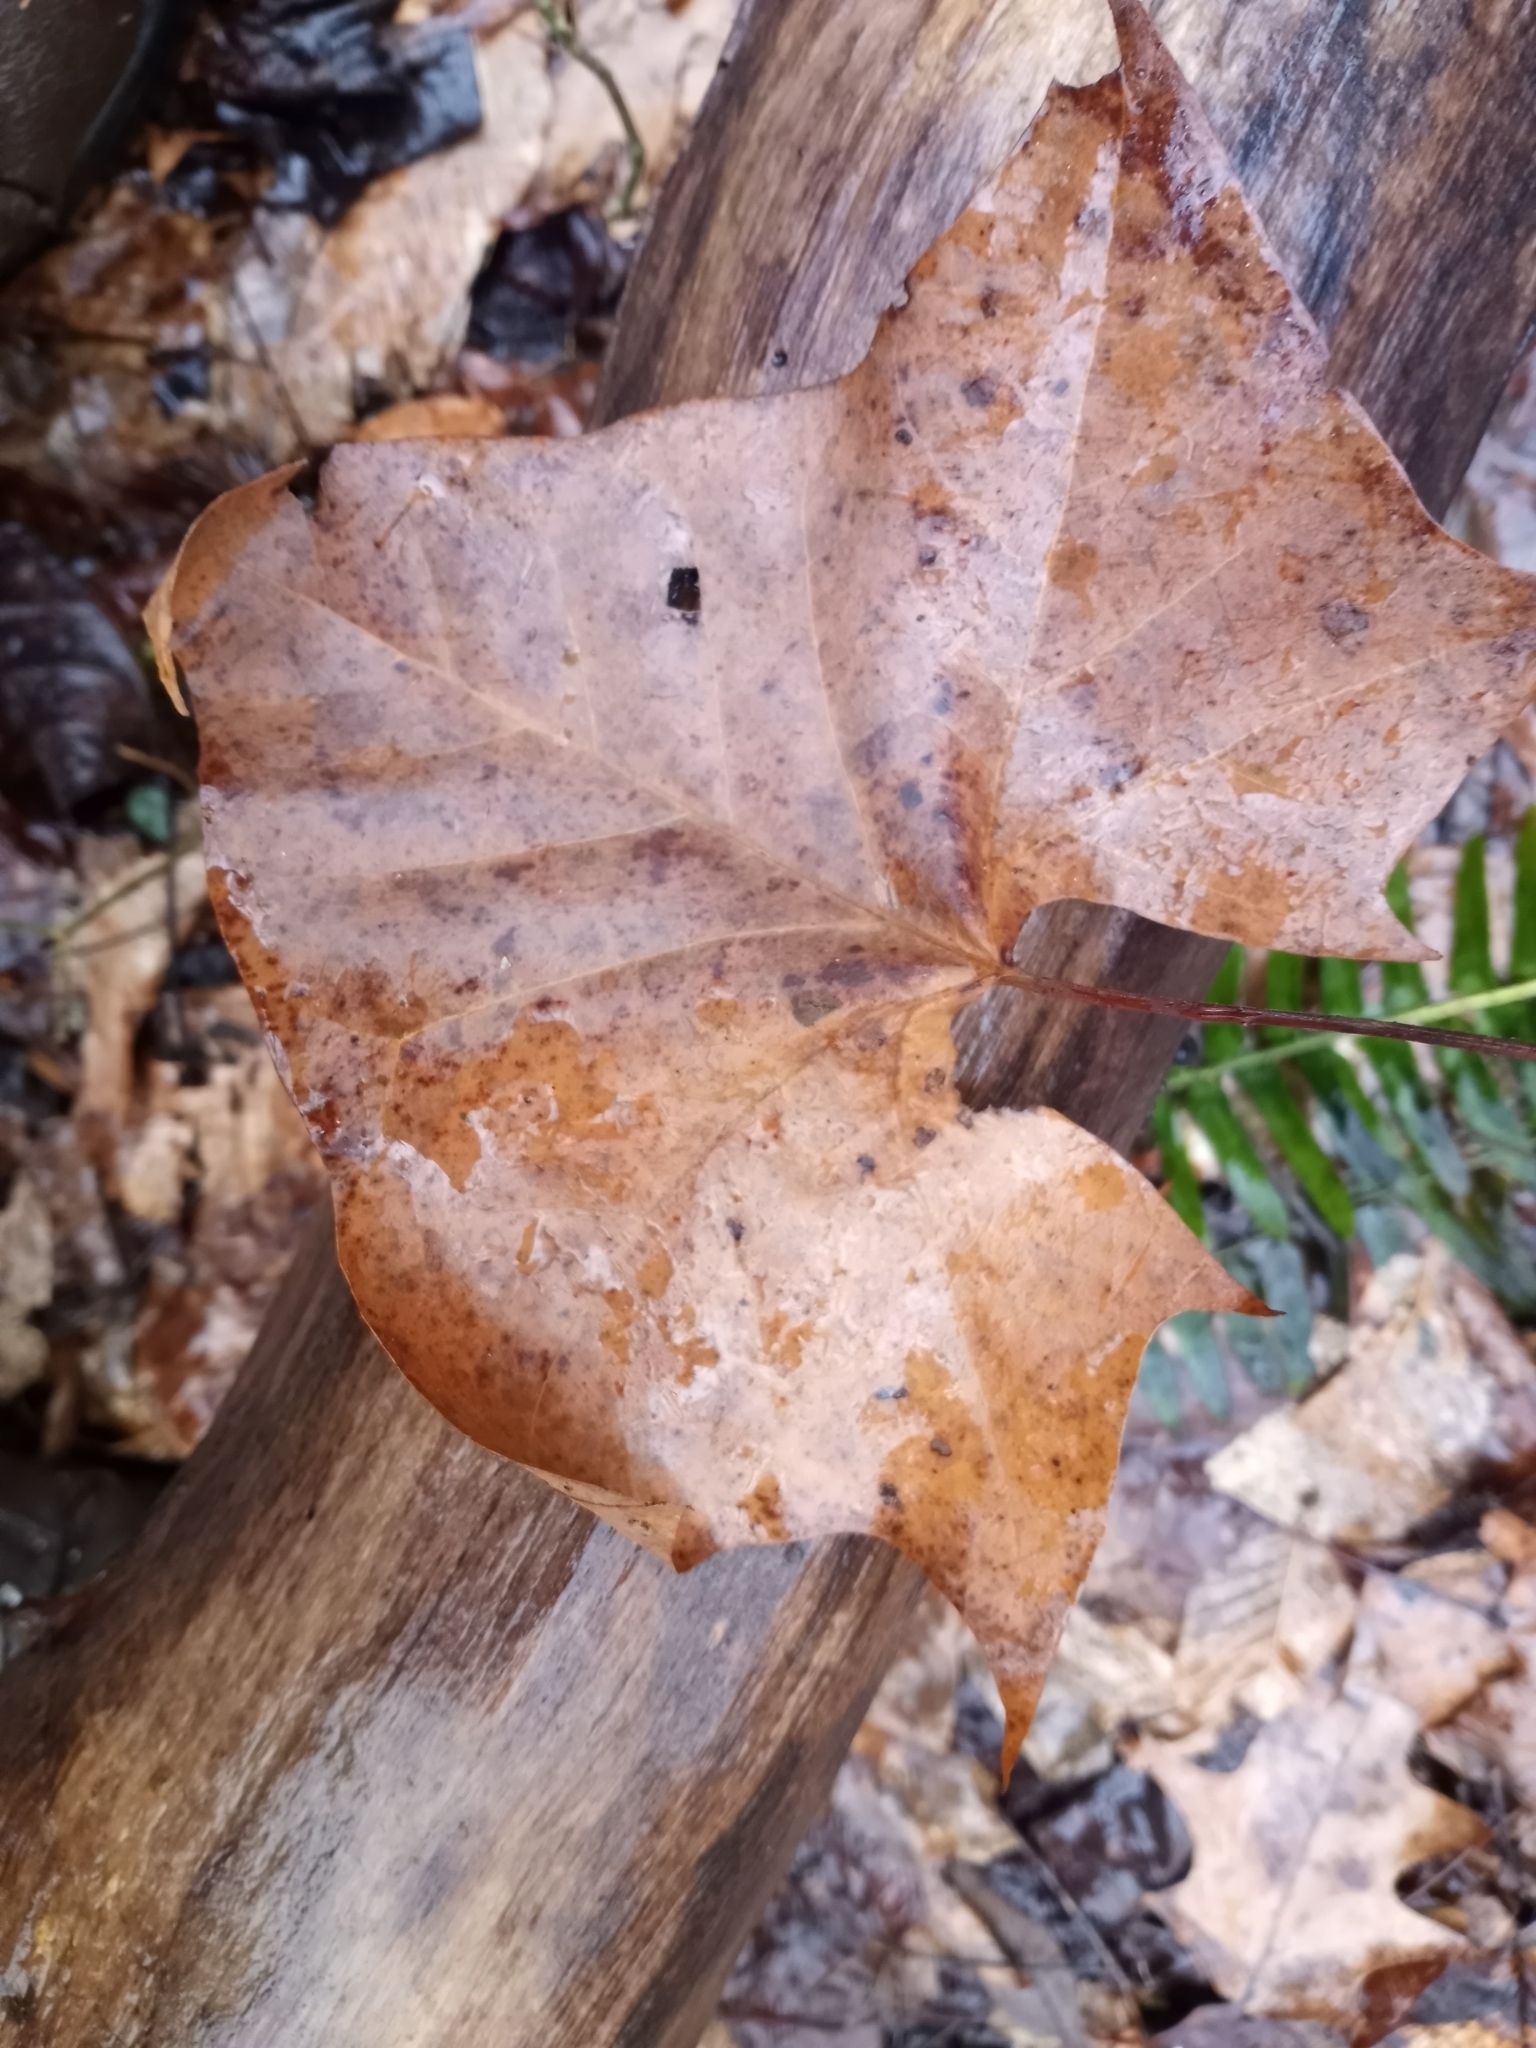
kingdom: Plantae
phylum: Tracheophyta
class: Magnoliopsida
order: Proteales
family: Platanaceae
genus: Platanus
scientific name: Platanus occidentalis
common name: American sycamore
